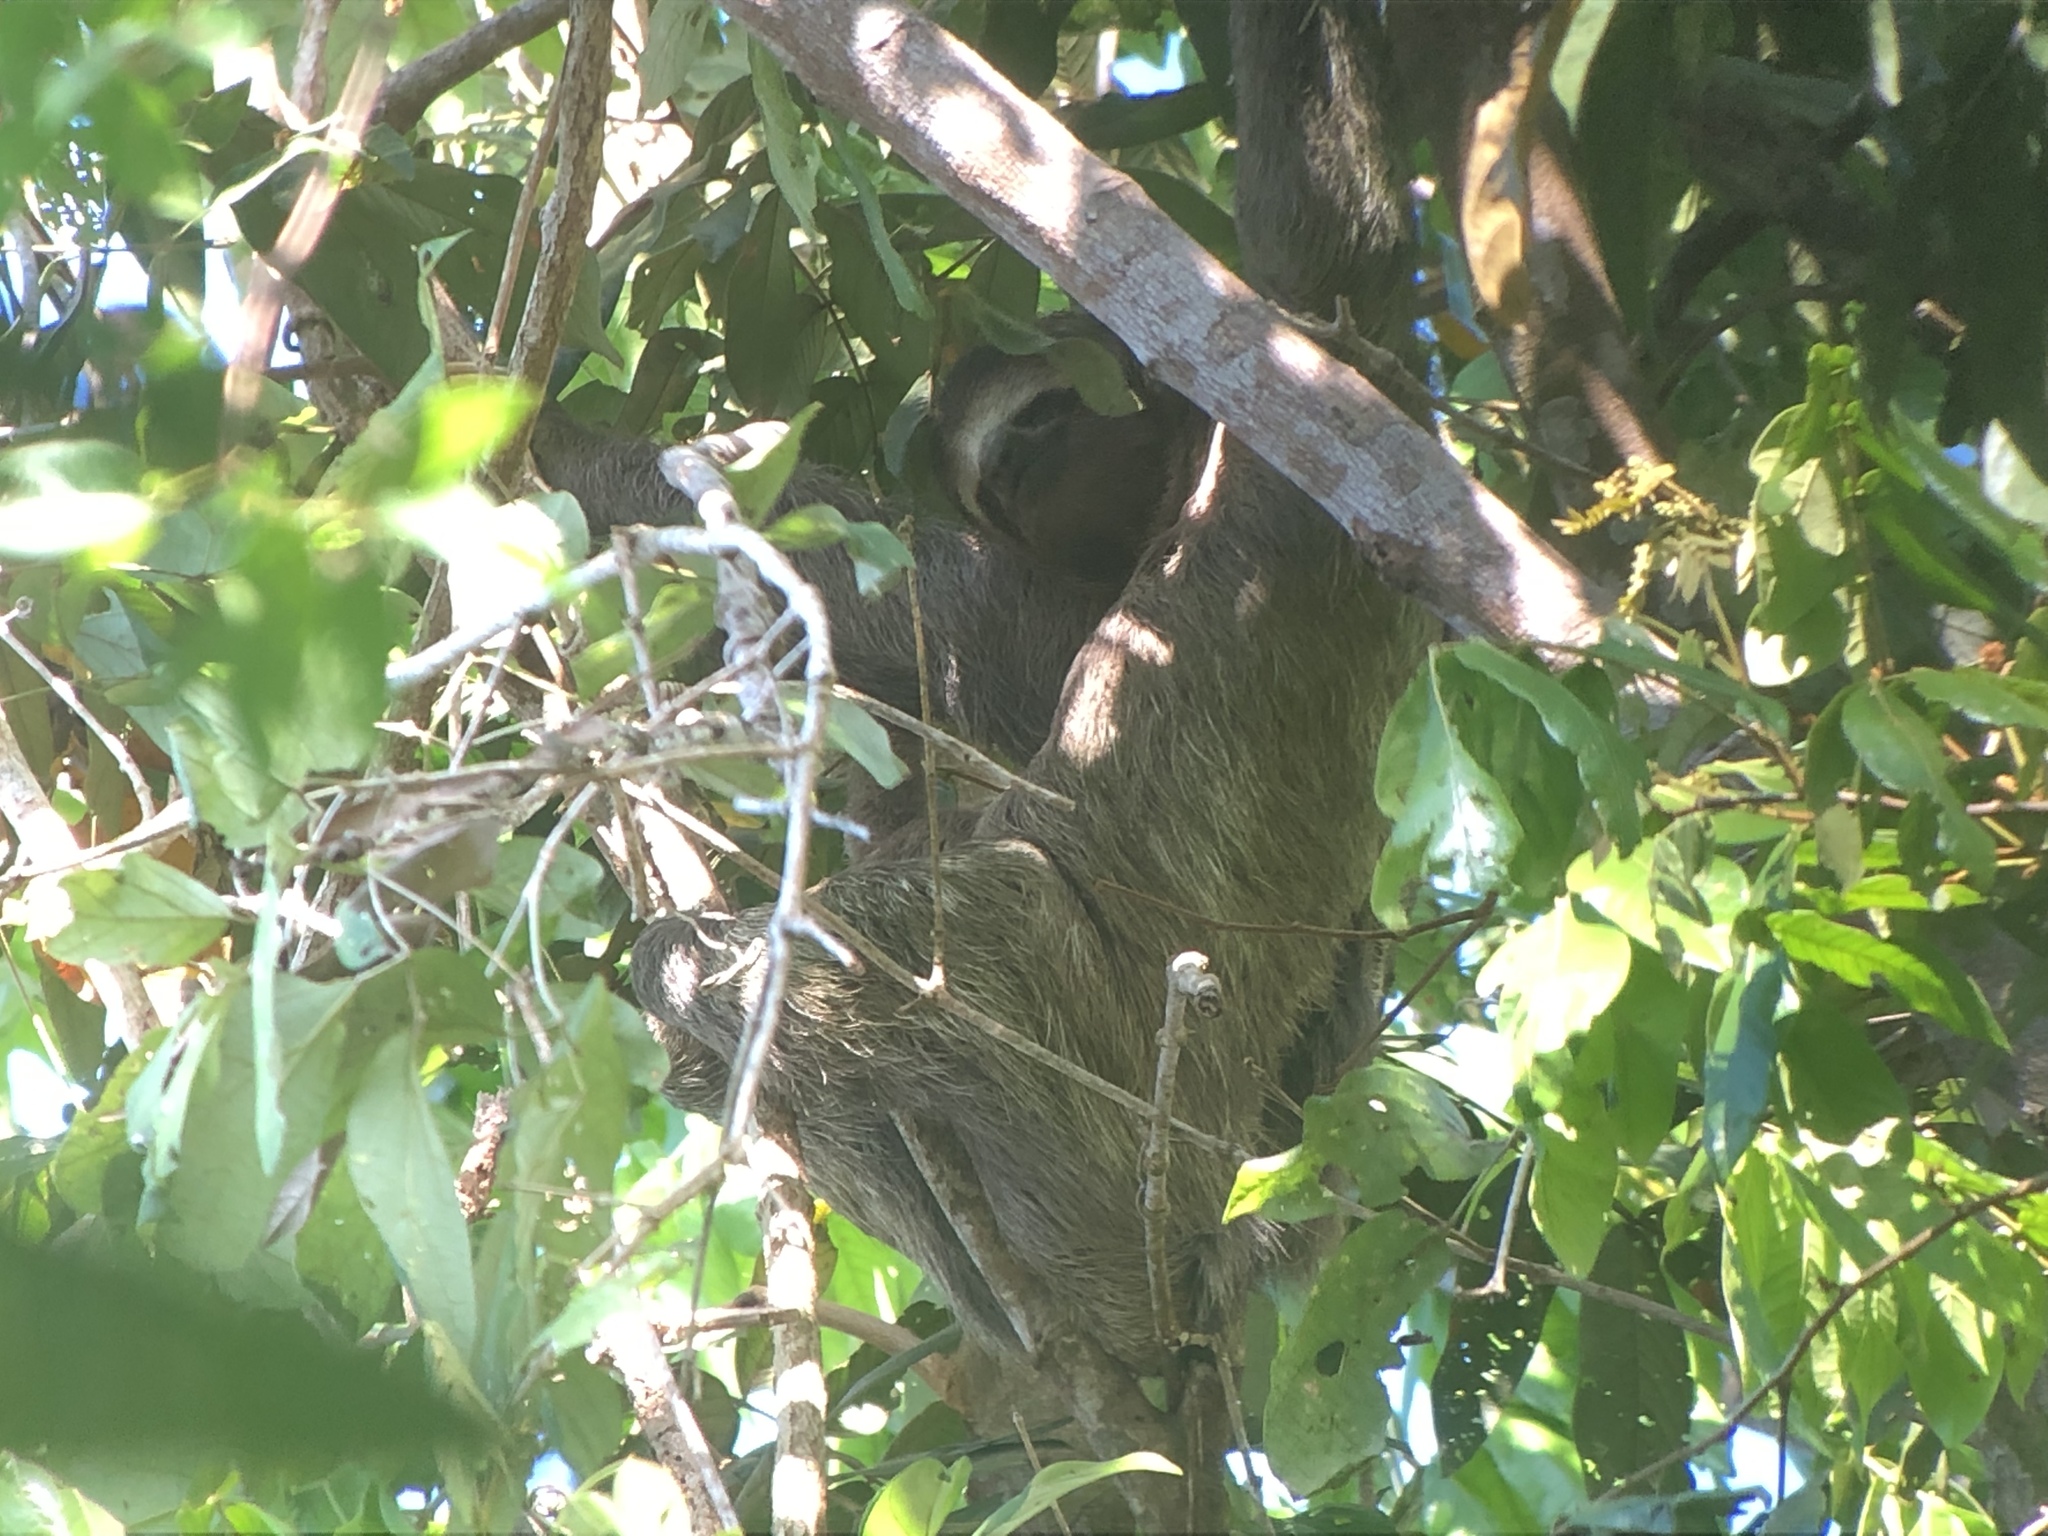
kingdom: Animalia
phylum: Chordata
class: Mammalia
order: Pilosa
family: Bradypodidae
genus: Bradypus
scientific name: Bradypus variegatus
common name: Brown-throated three-toed sloth
